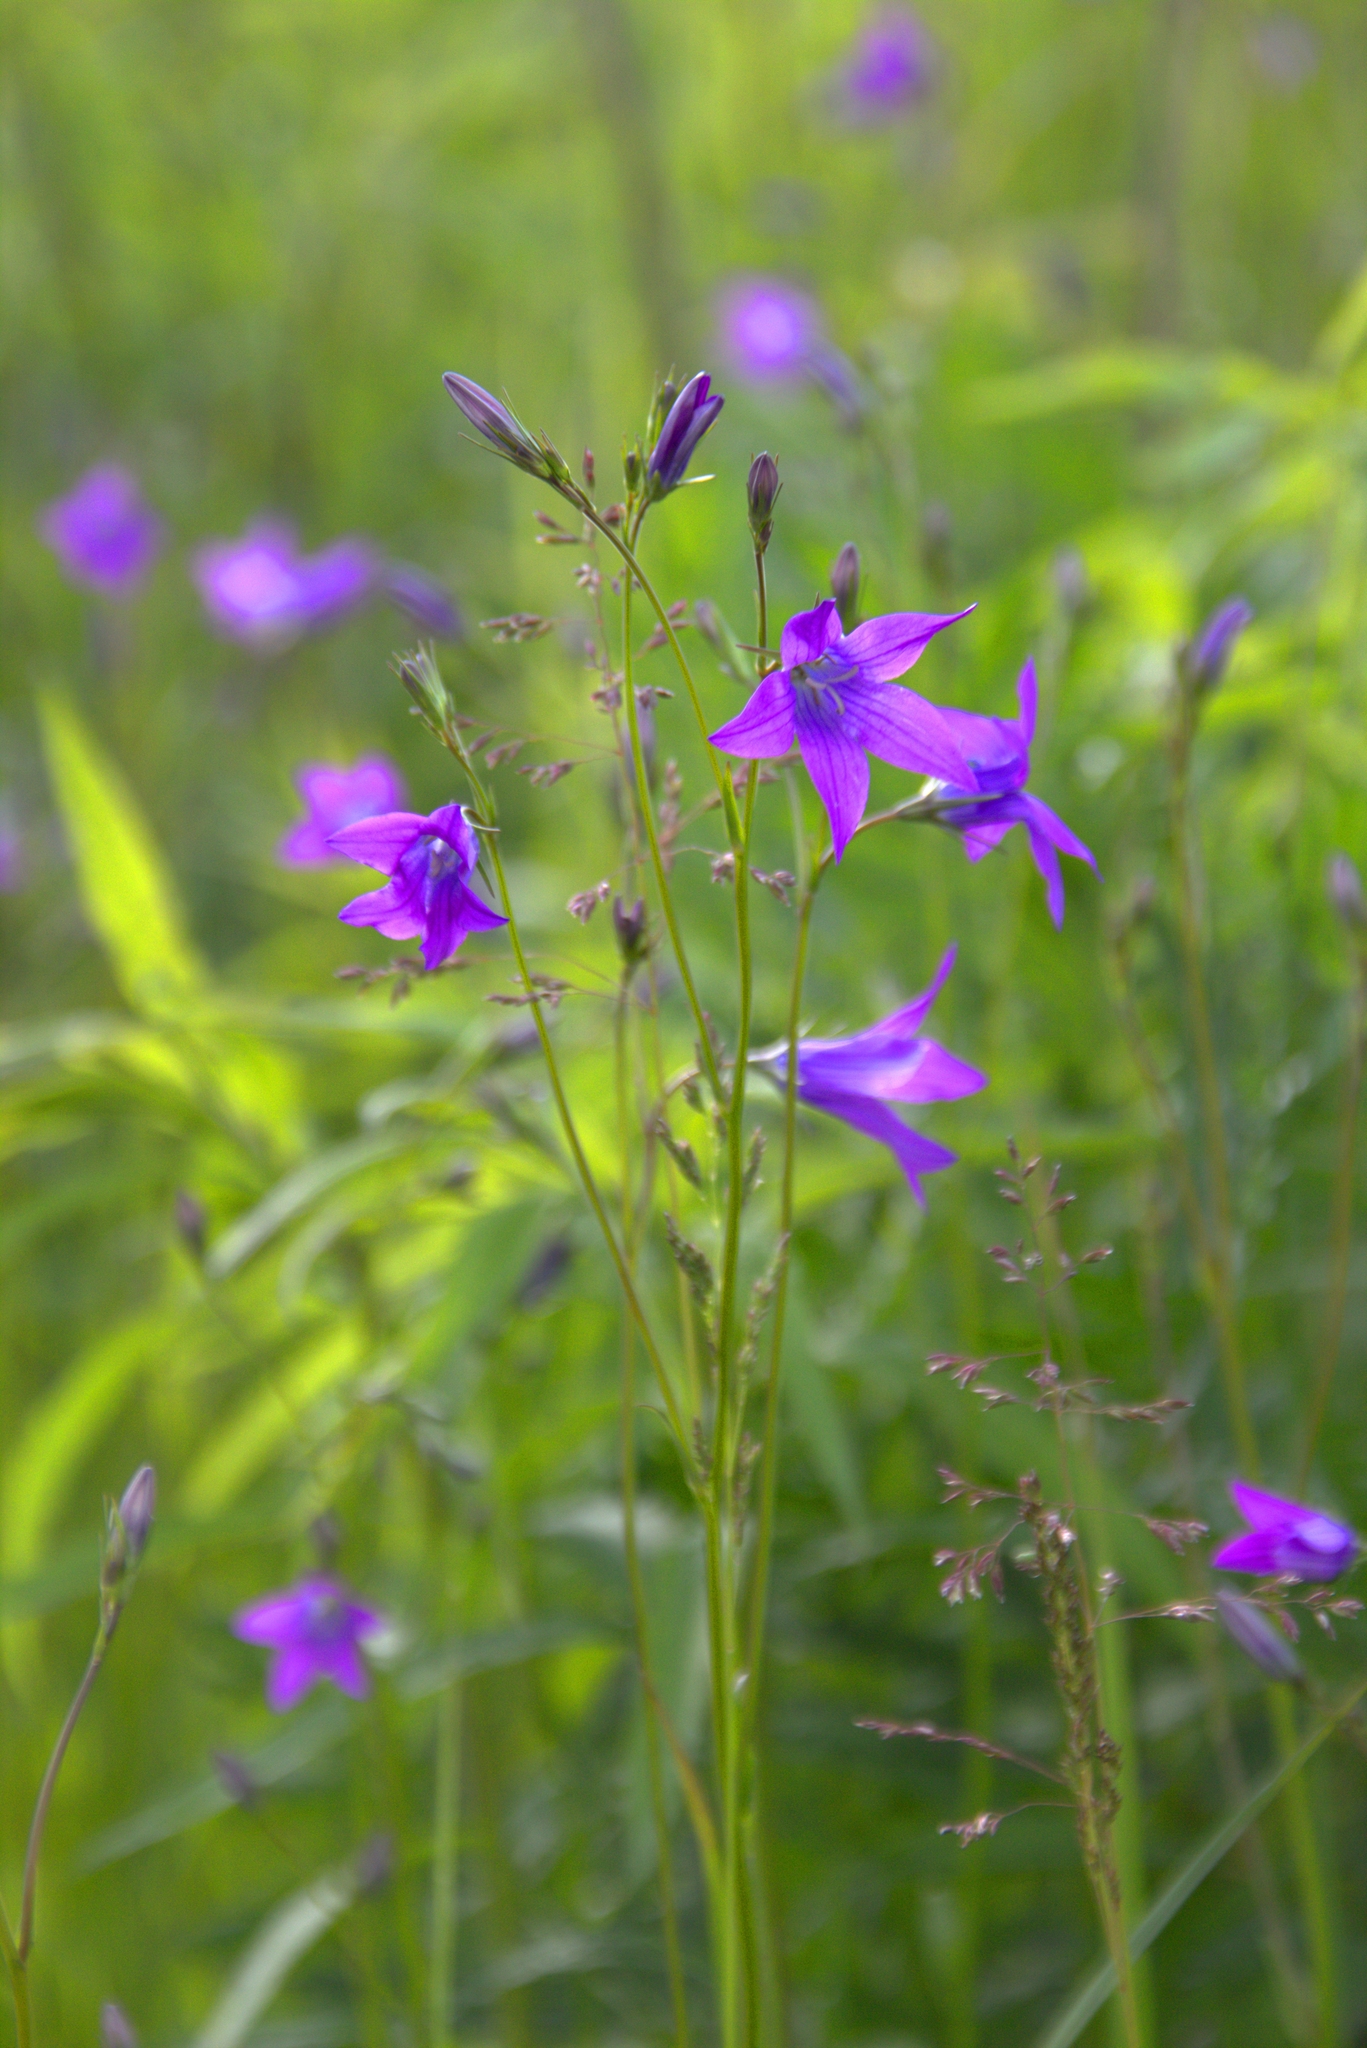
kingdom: Plantae
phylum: Tracheophyta
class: Magnoliopsida
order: Asterales
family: Campanulaceae
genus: Campanula
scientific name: Campanula patula
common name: Spreading bellflower
